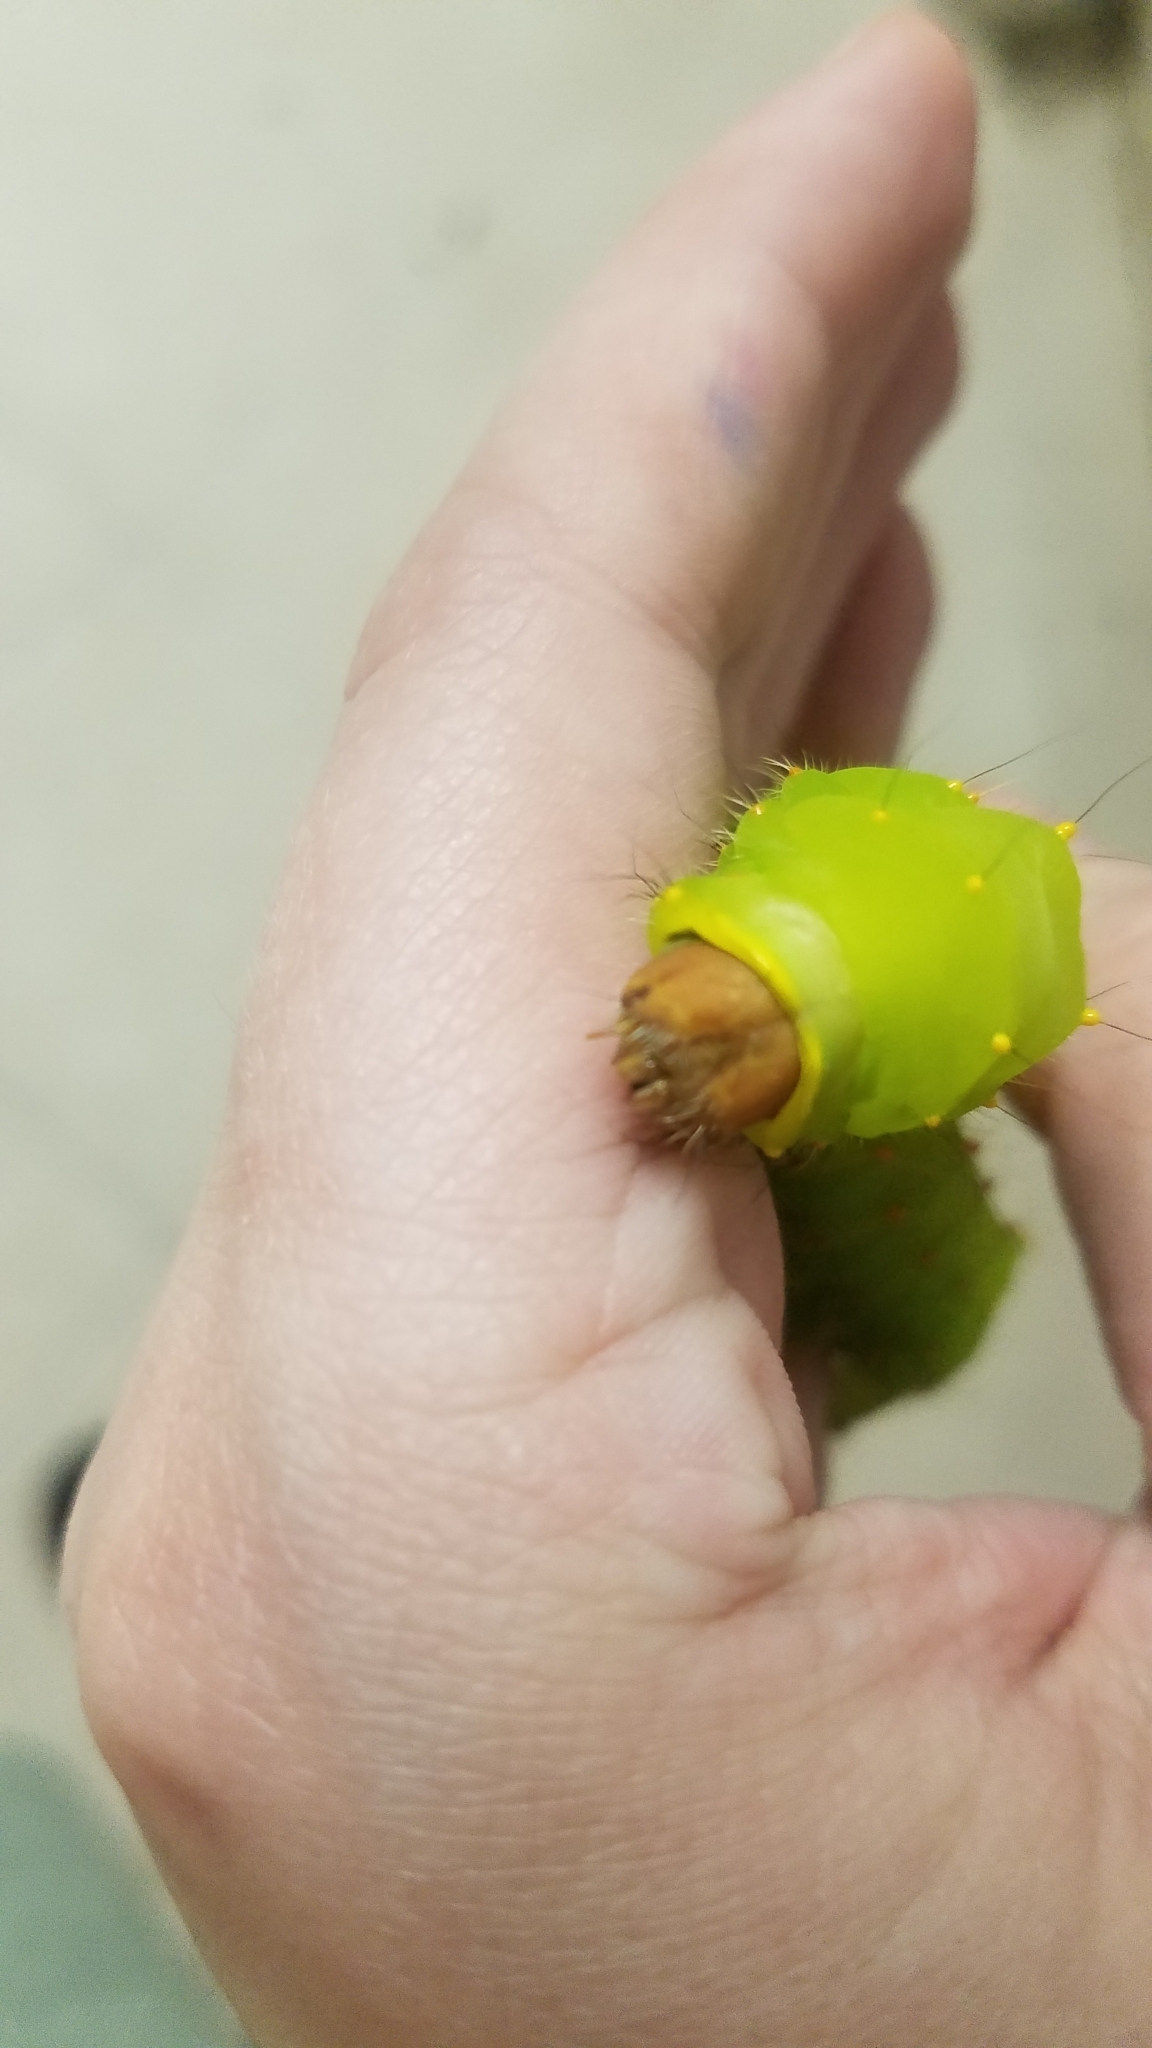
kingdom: Animalia
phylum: Arthropoda
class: Insecta
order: Lepidoptera
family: Saturniidae
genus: Antheraea
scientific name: Antheraea polyphemus
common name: Polyphemus moth
